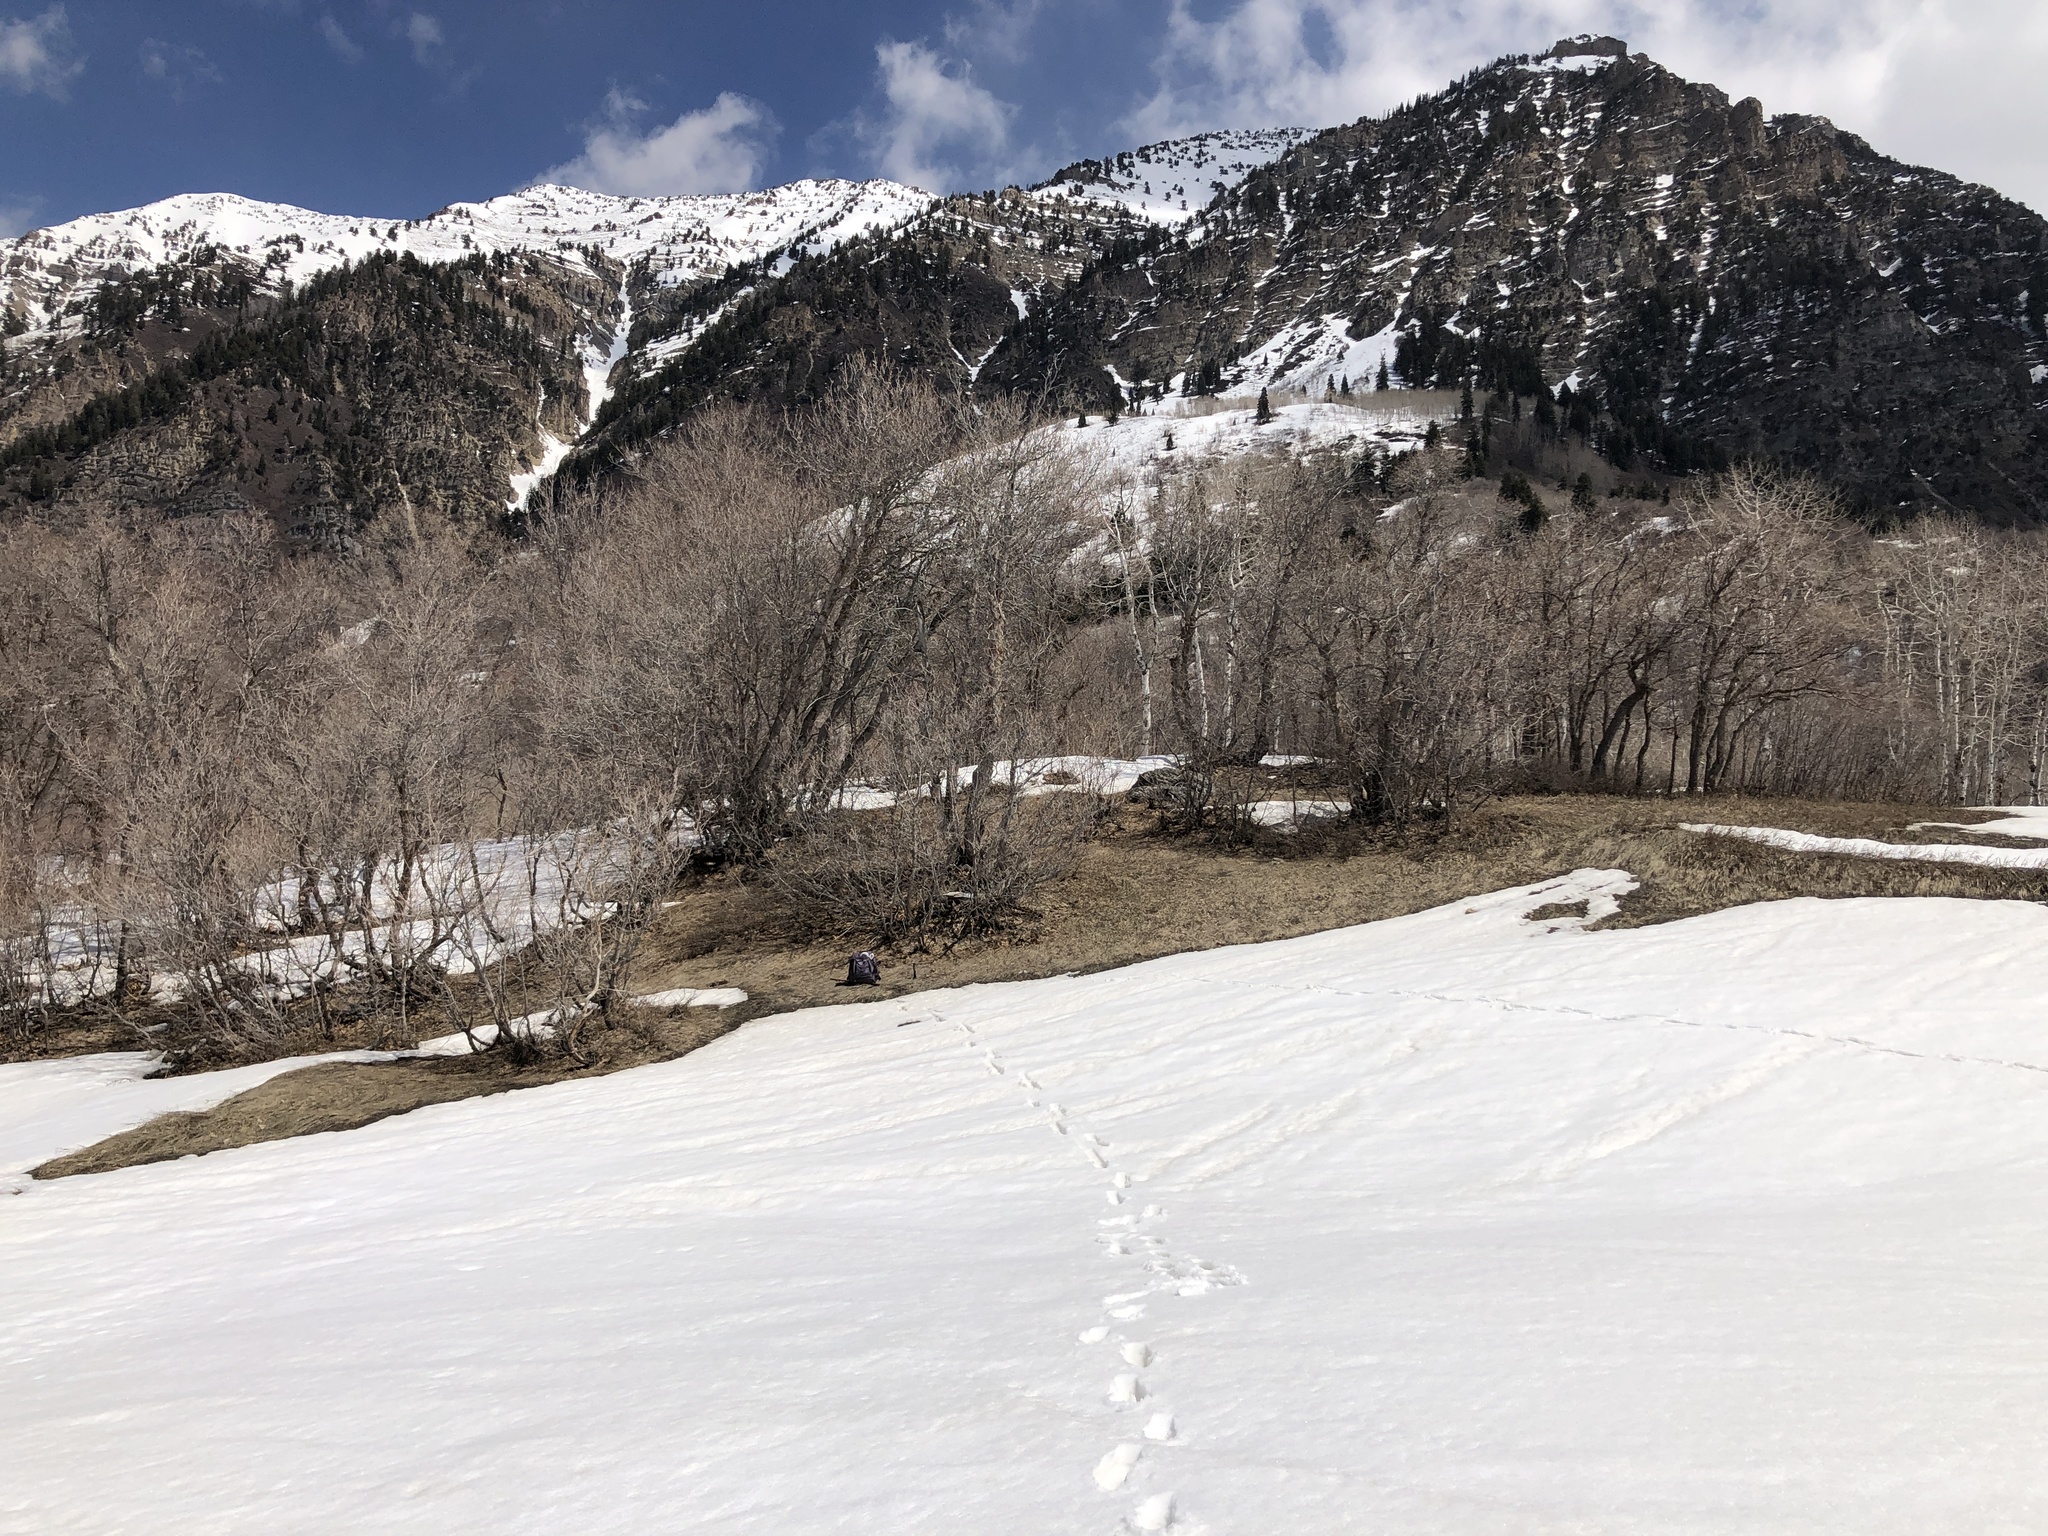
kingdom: Plantae
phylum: Tracheophyta
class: Magnoliopsida
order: Apiales
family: Apiaceae
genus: Lomatium
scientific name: Lomatium linearifolium
